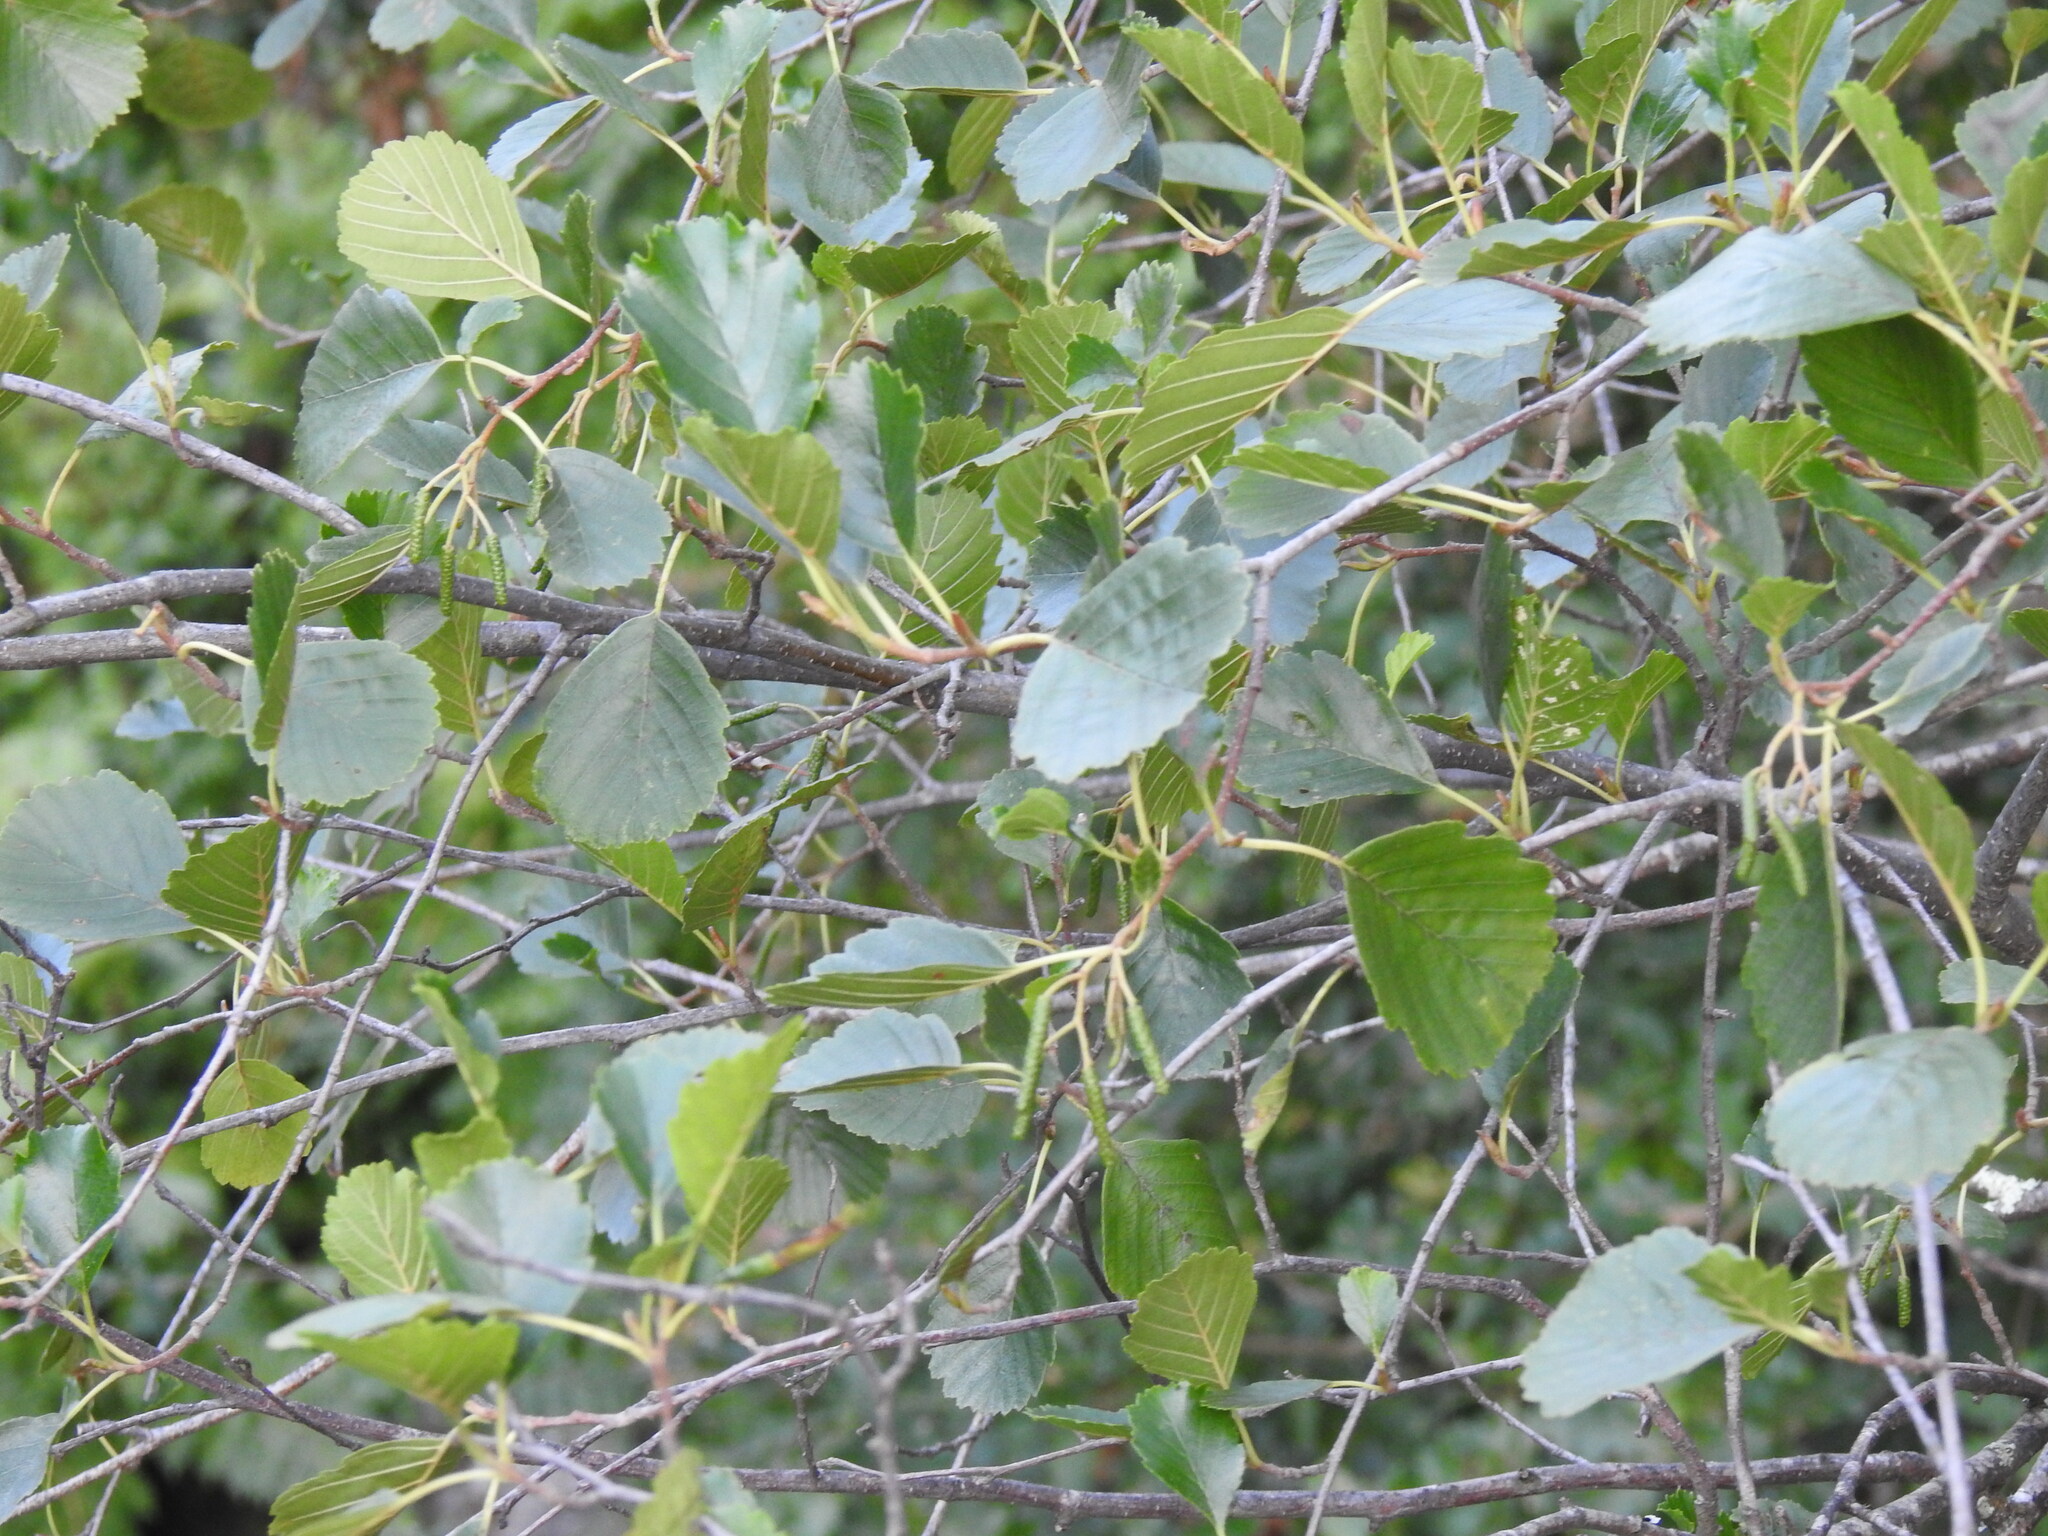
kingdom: Plantae
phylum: Tracheophyta
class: Magnoliopsida
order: Fagales
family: Betulaceae
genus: Alnus
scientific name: Alnus lusitanica
